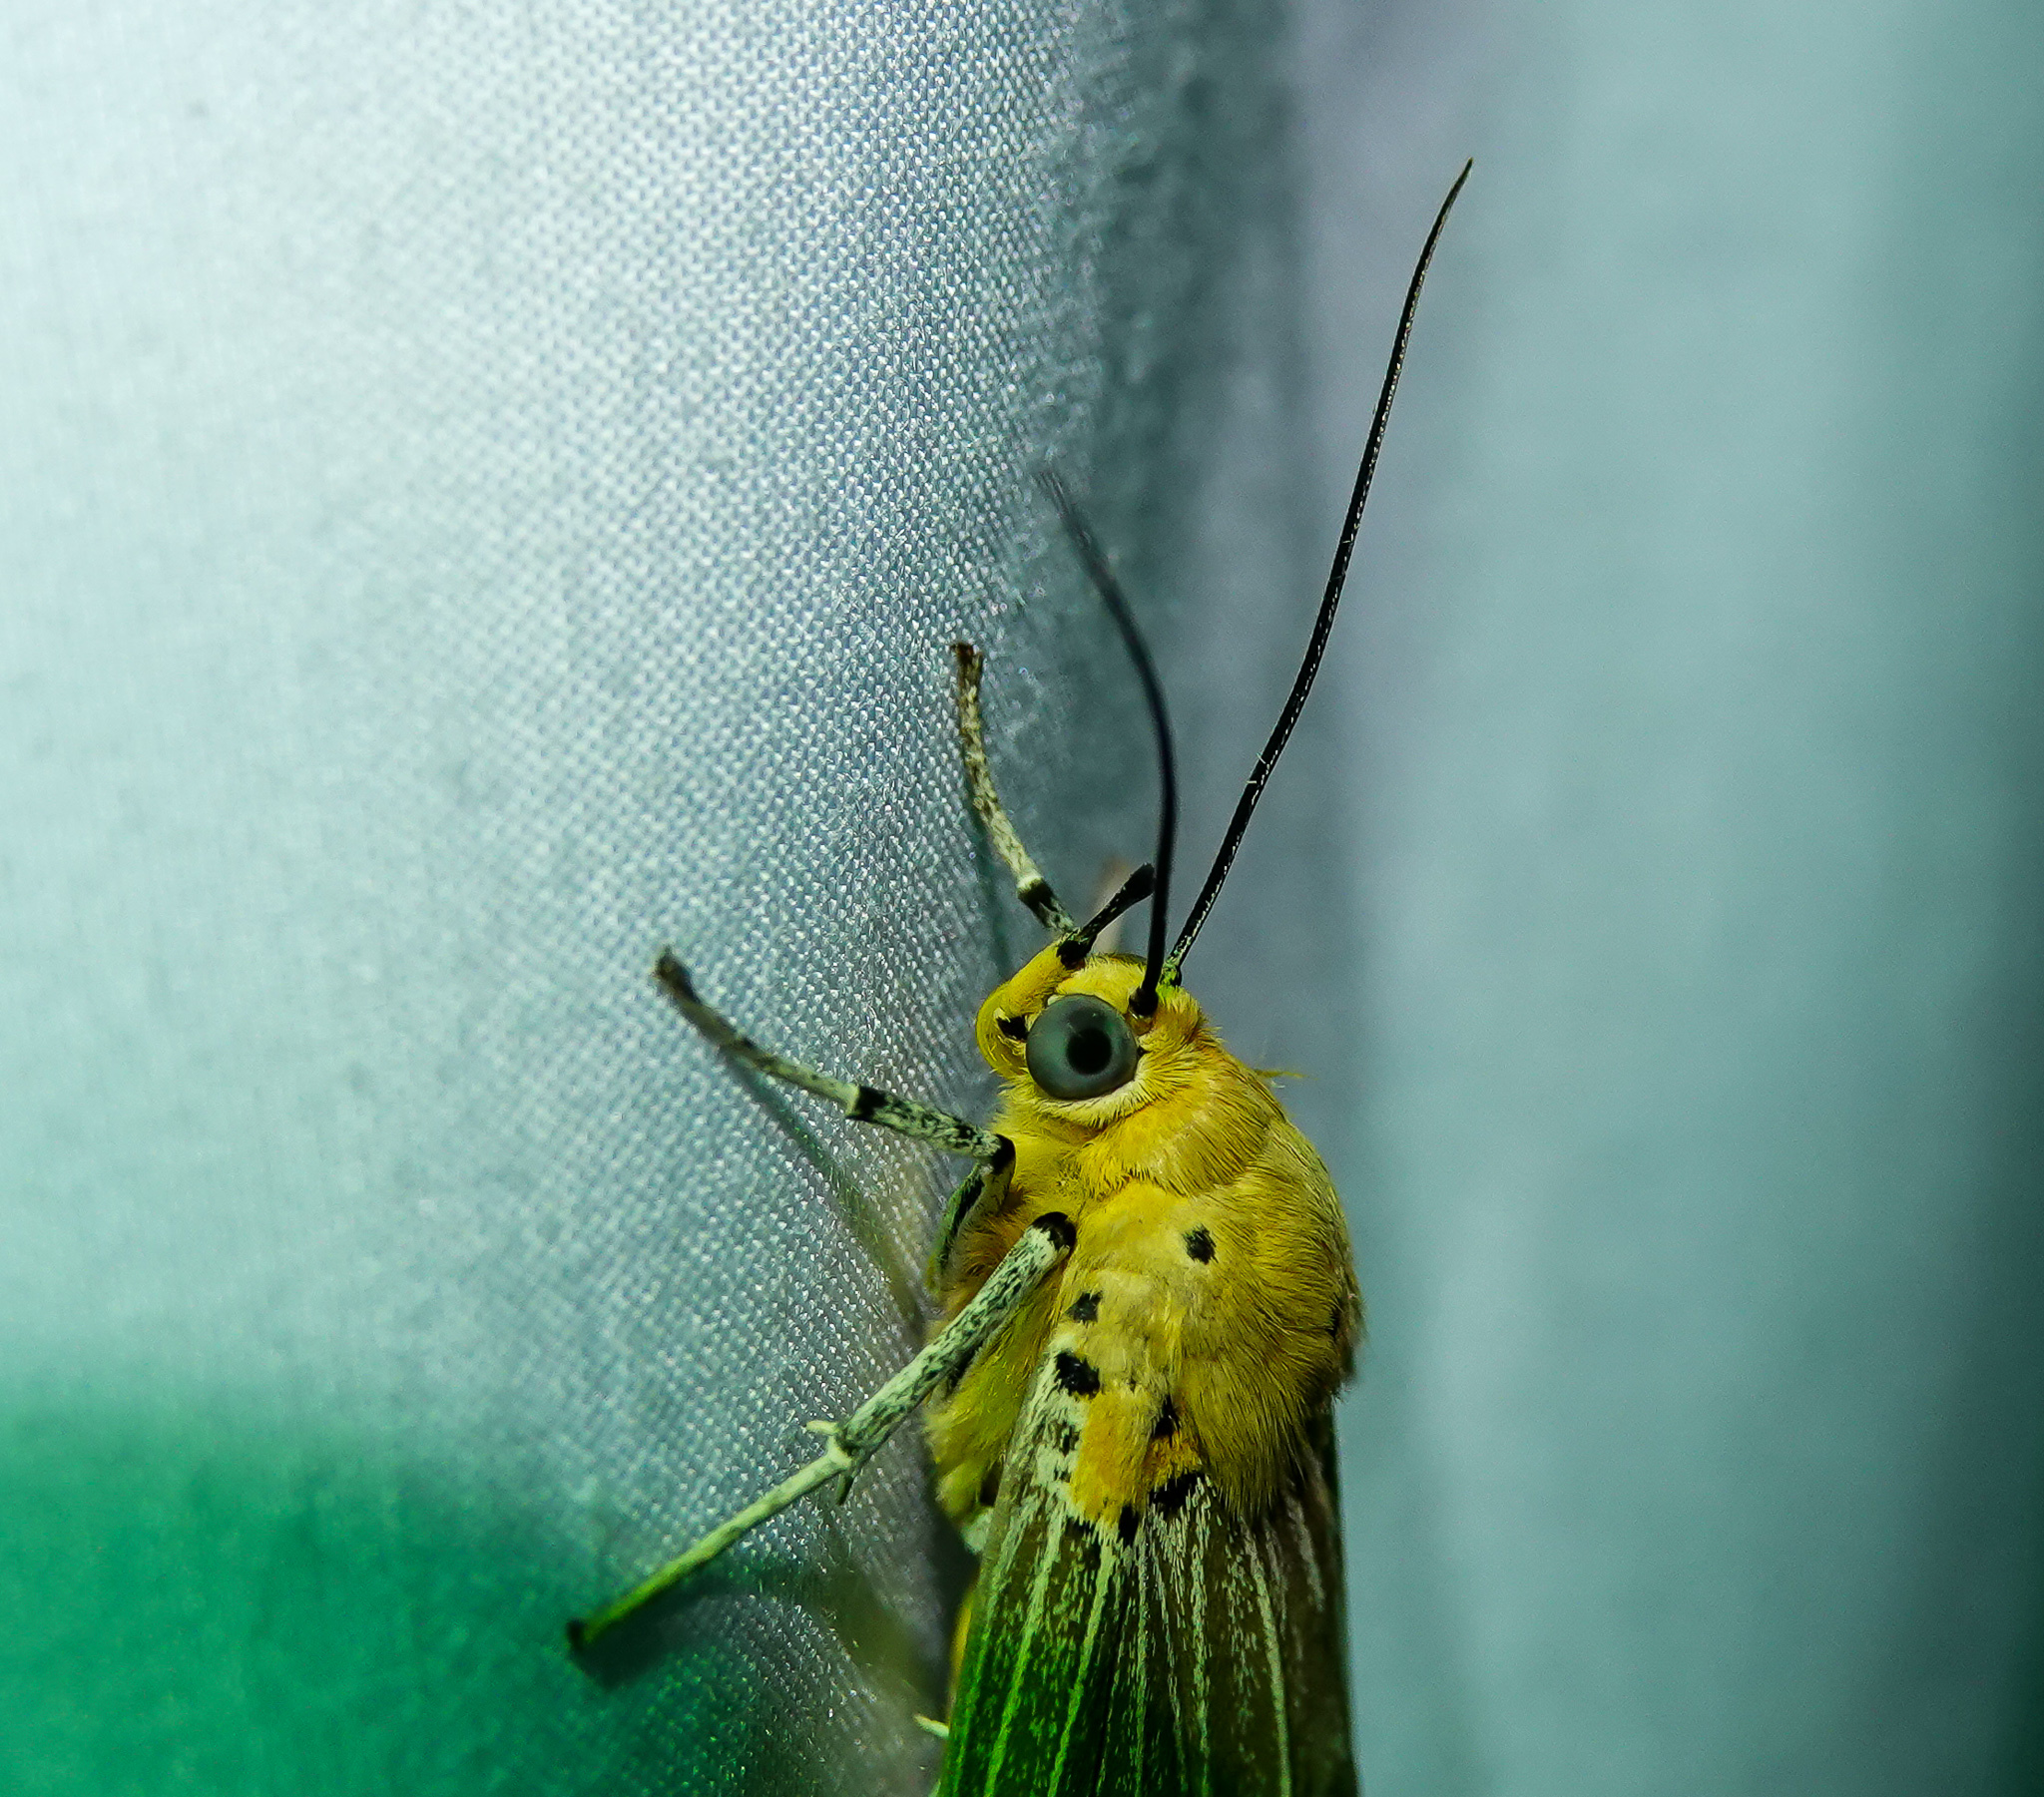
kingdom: Animalia
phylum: Arthropoda
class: Insecta
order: Lepidoptera
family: Erebidae
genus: Asota
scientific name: Asota caricae
